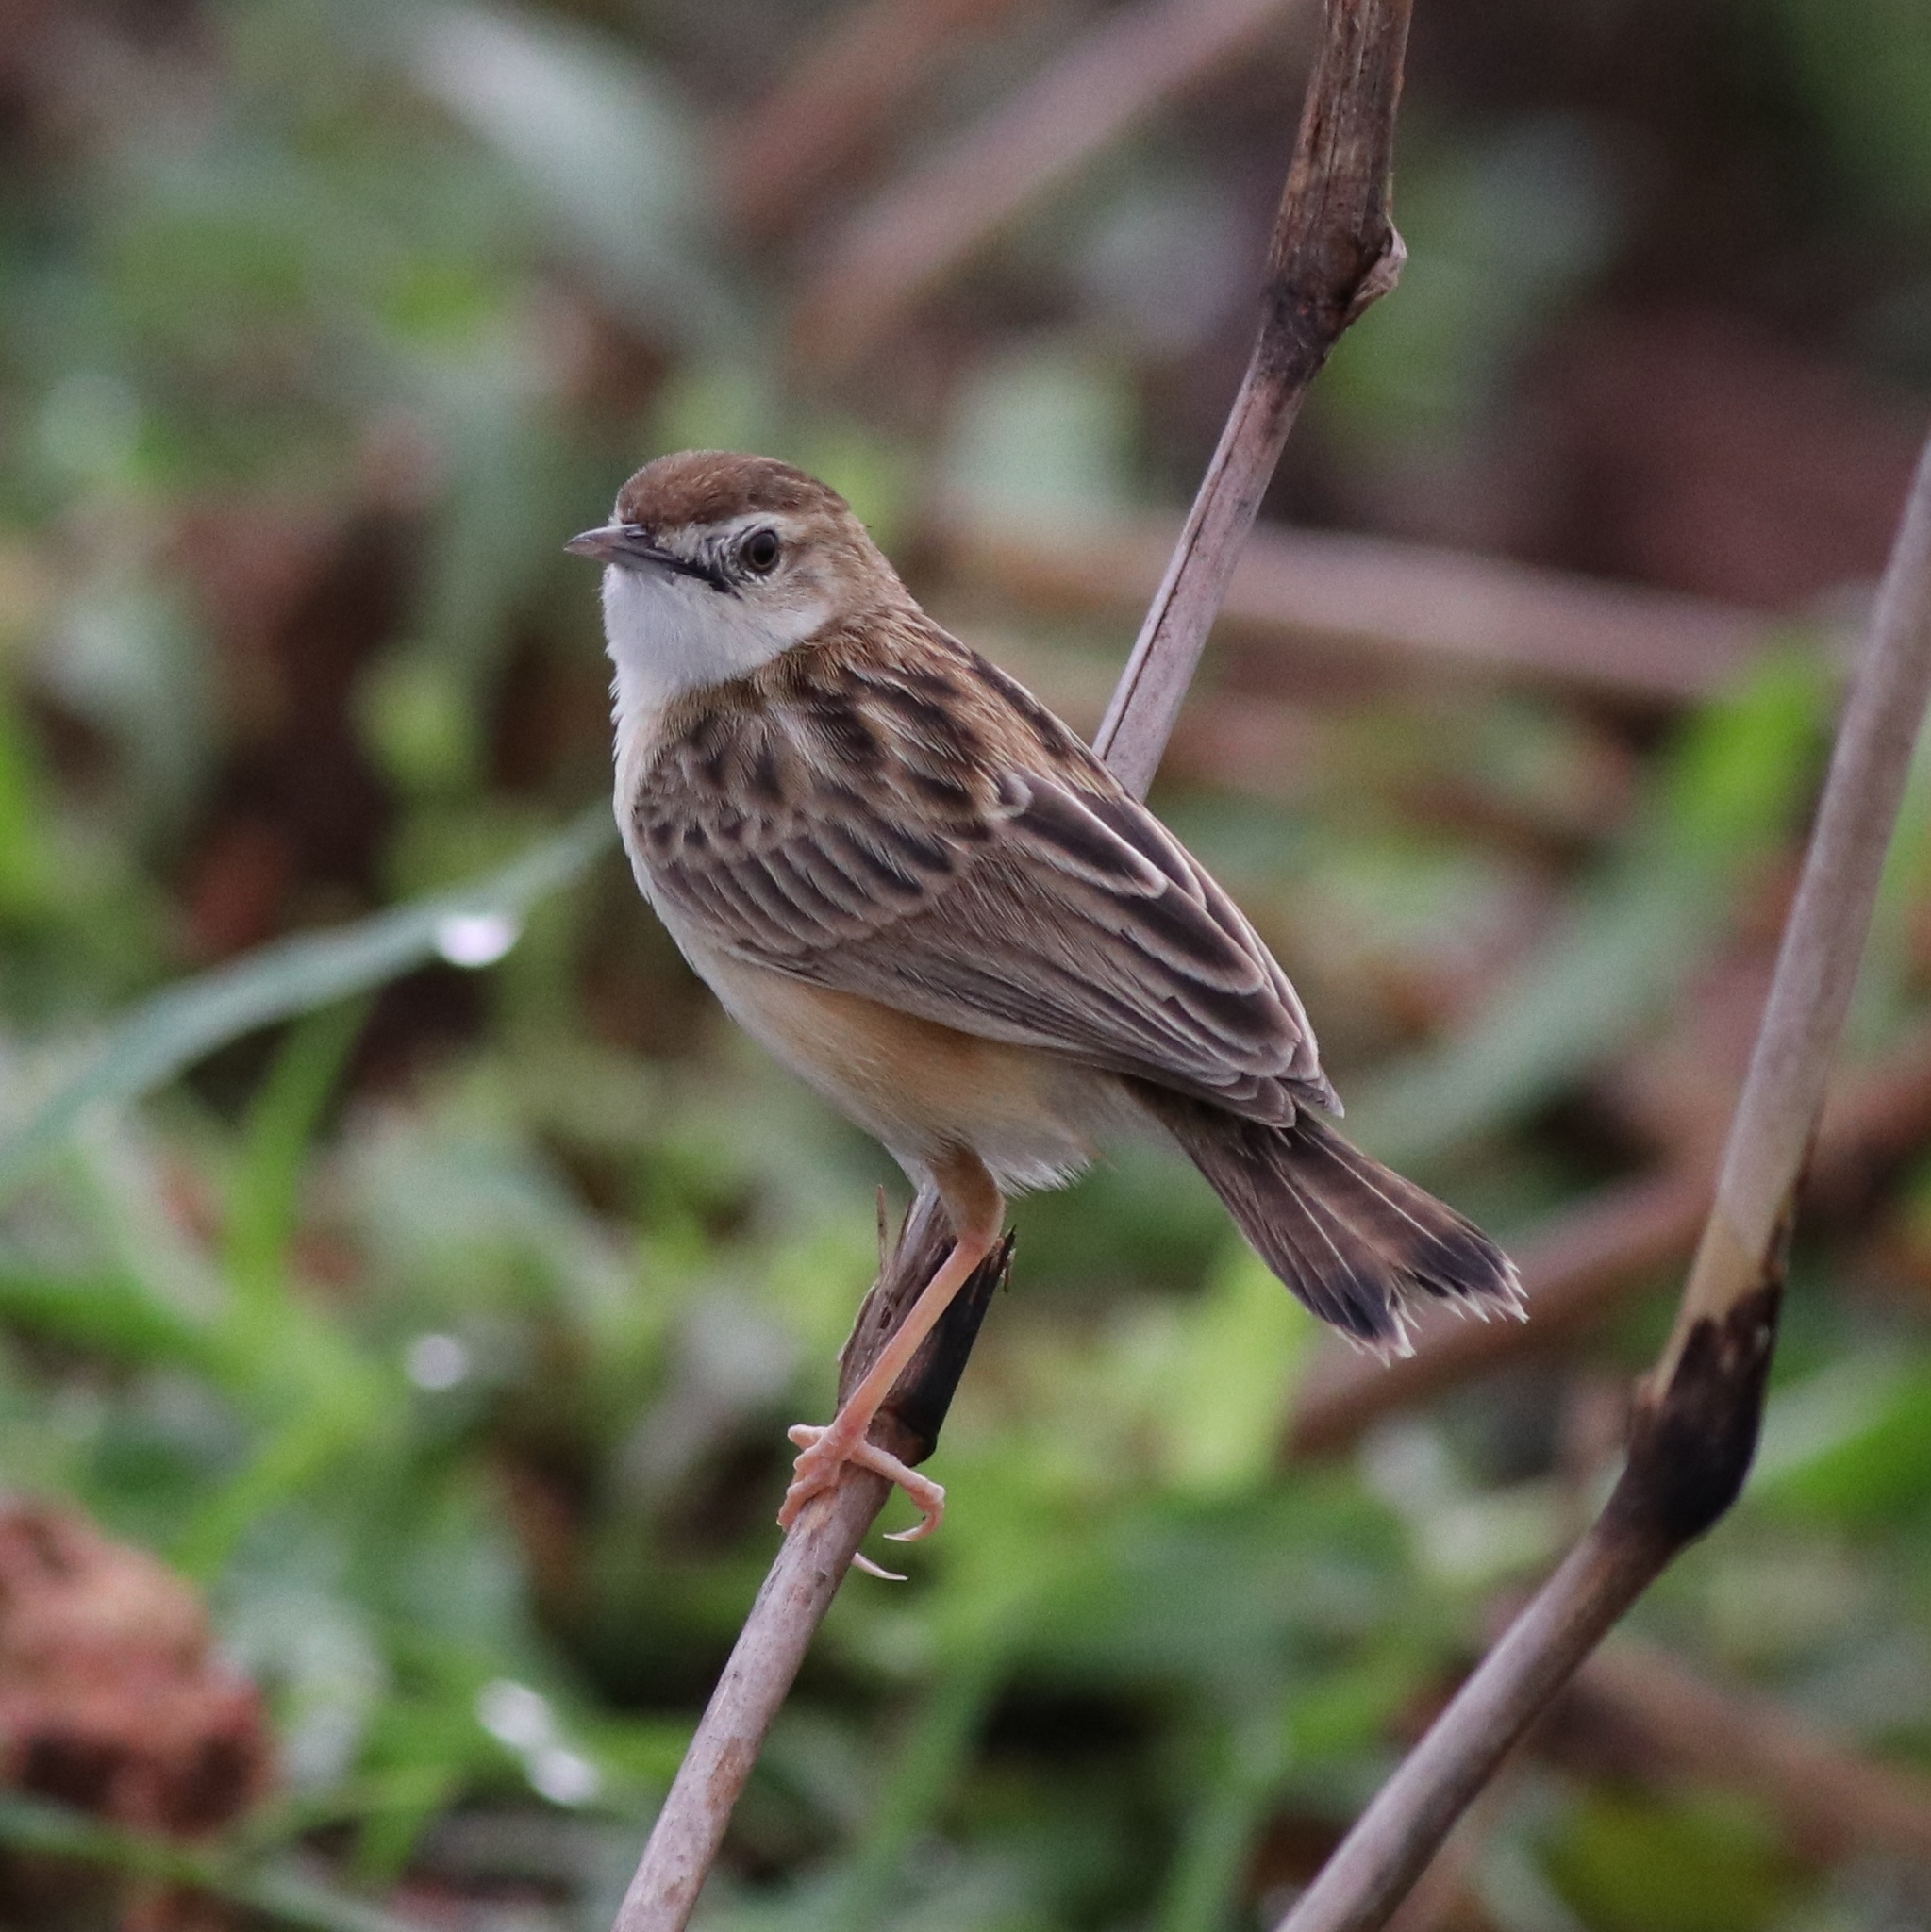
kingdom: Animalia
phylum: Chordata
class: Aves
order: Passeriformes
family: Cisticolidae
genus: Cisticola
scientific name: Cisticola juncidis
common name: Zitting cisticola
